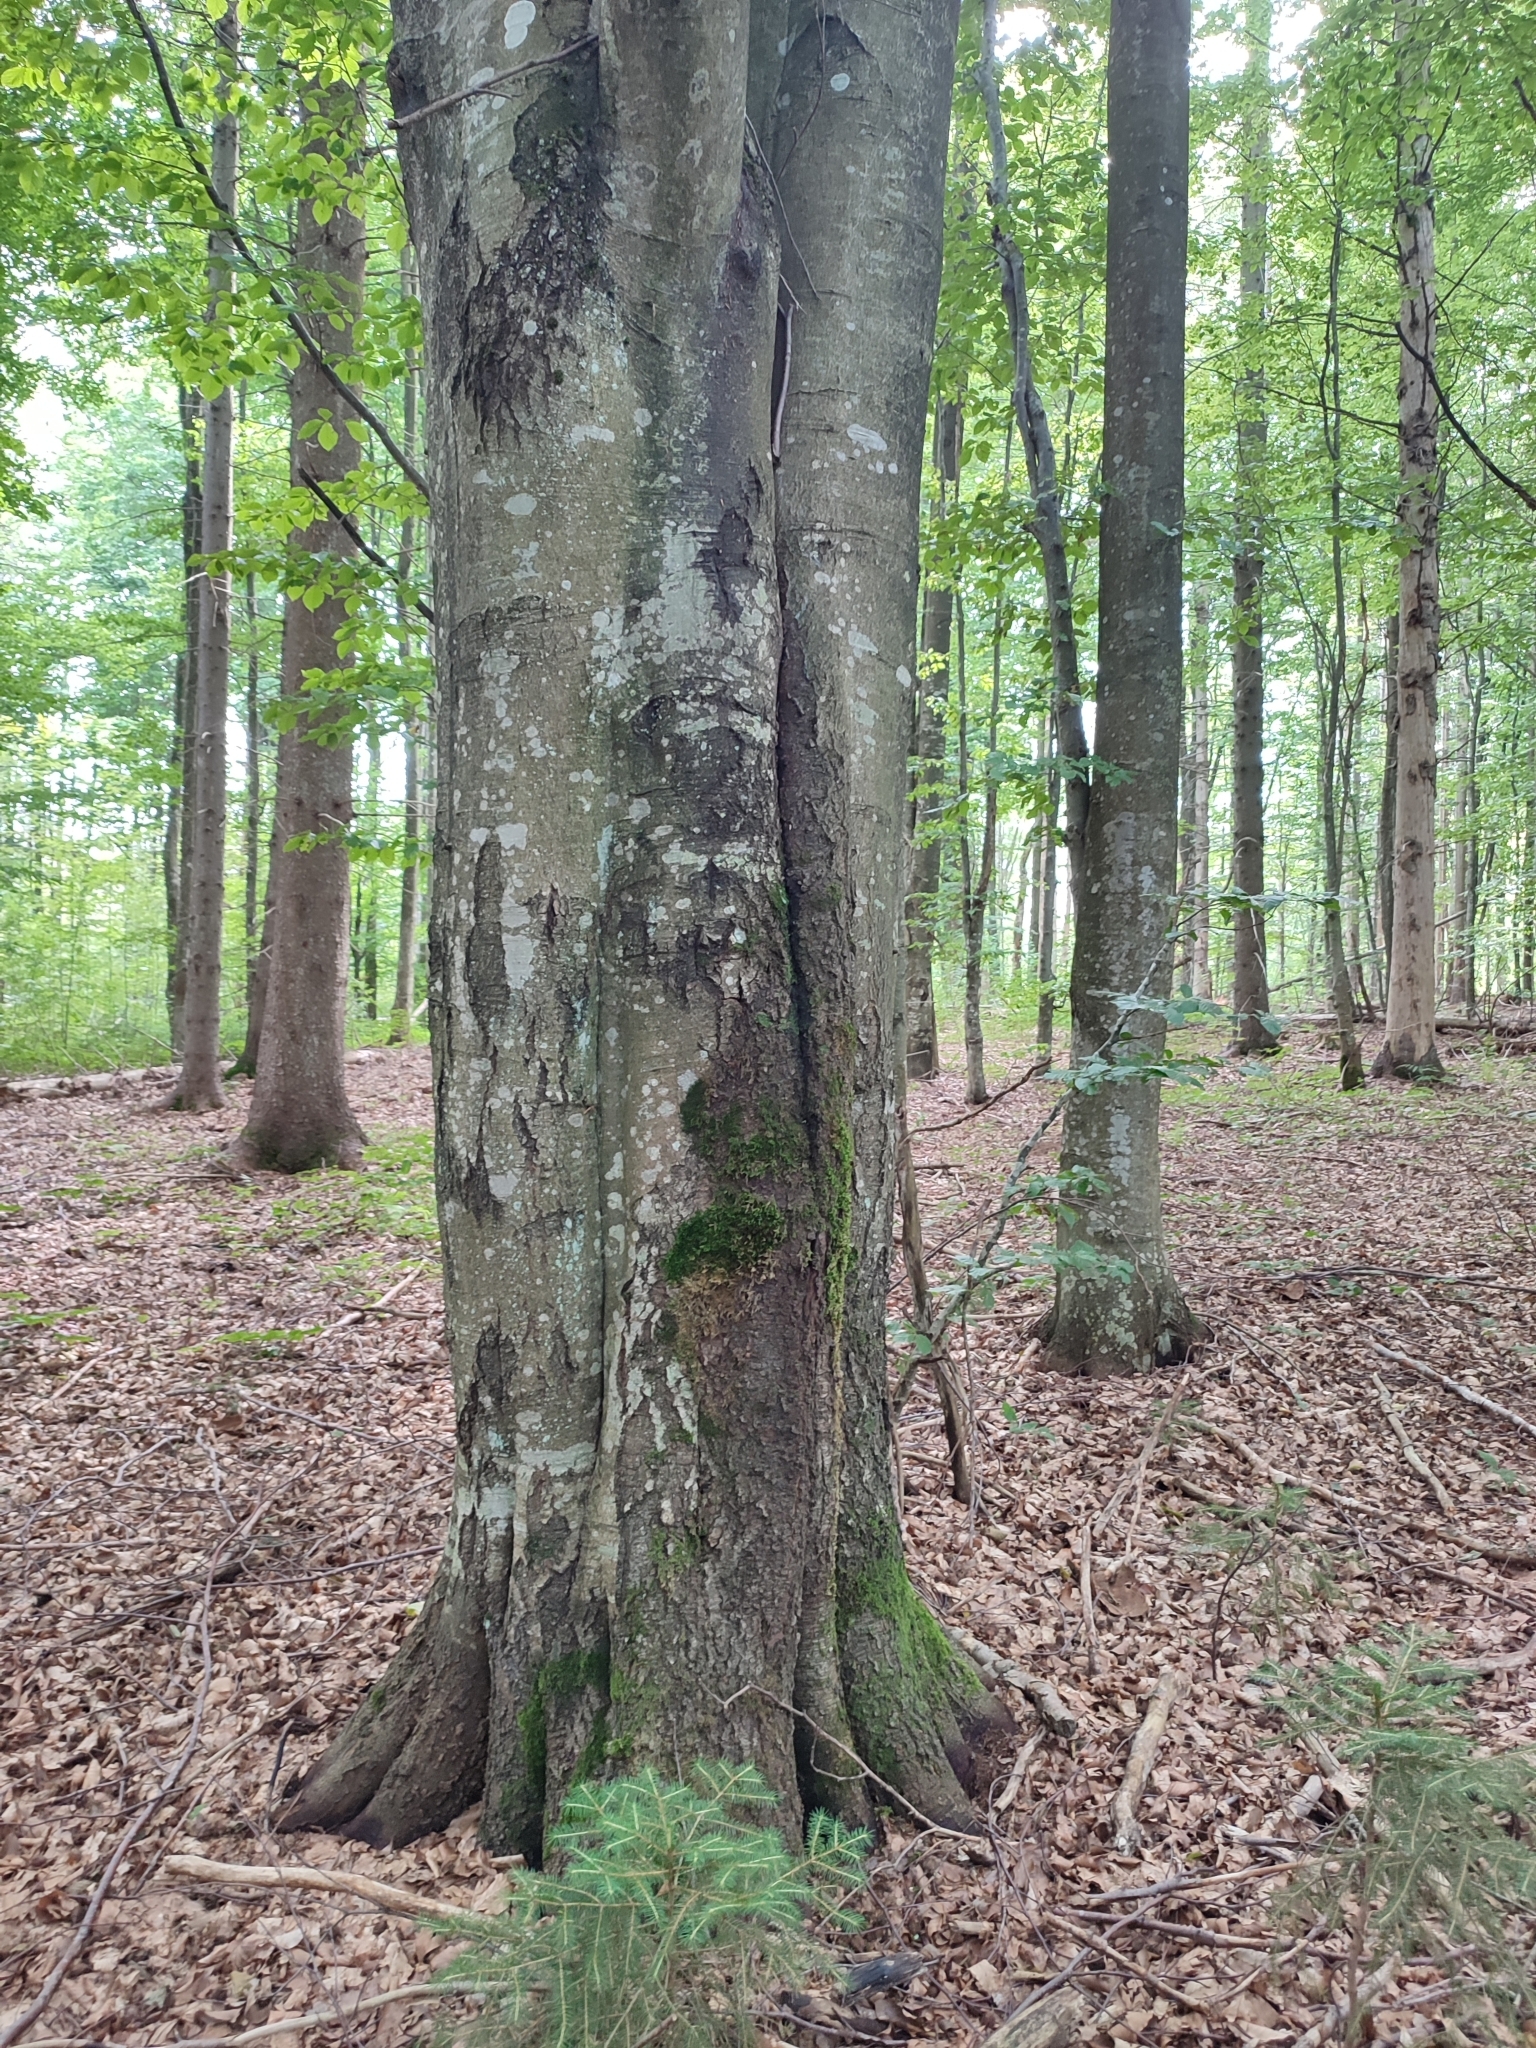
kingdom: Plantae
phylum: Tracheophyta
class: Magnoliopsida
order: Fagales
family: Fagaceae
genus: Fagus
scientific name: Fagus sylvatica
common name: Beech
